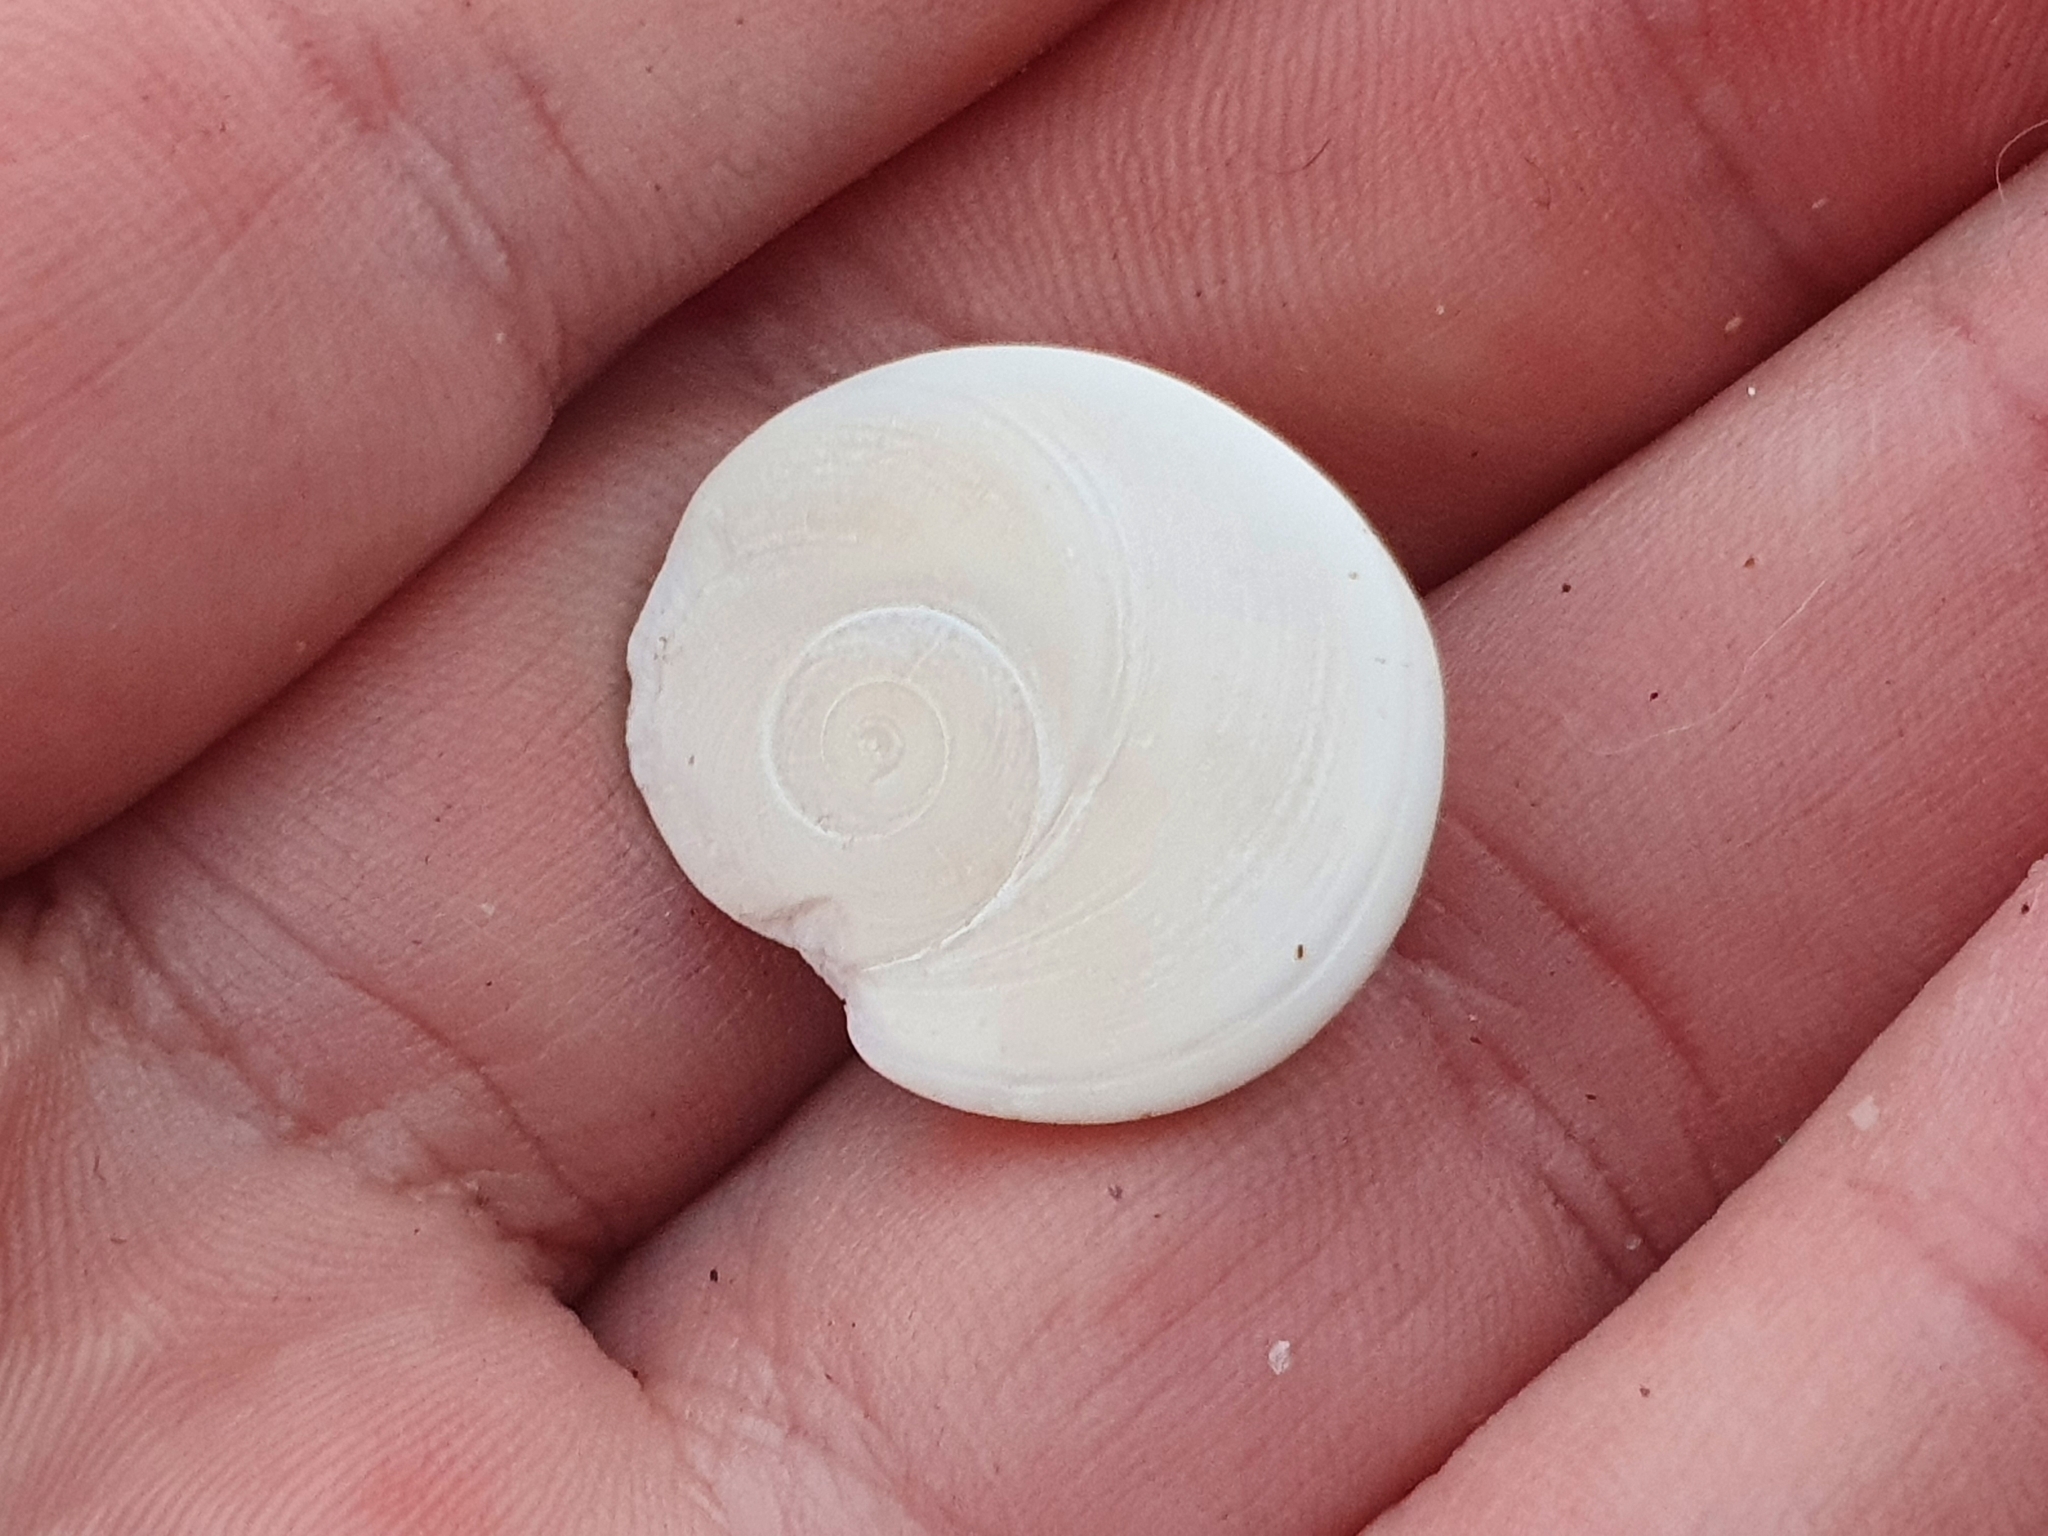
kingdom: Animalia
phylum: Mollusca
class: Gastropoda
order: Trochida
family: Turbinidae
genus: Lunella
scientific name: Lunella smaragda
